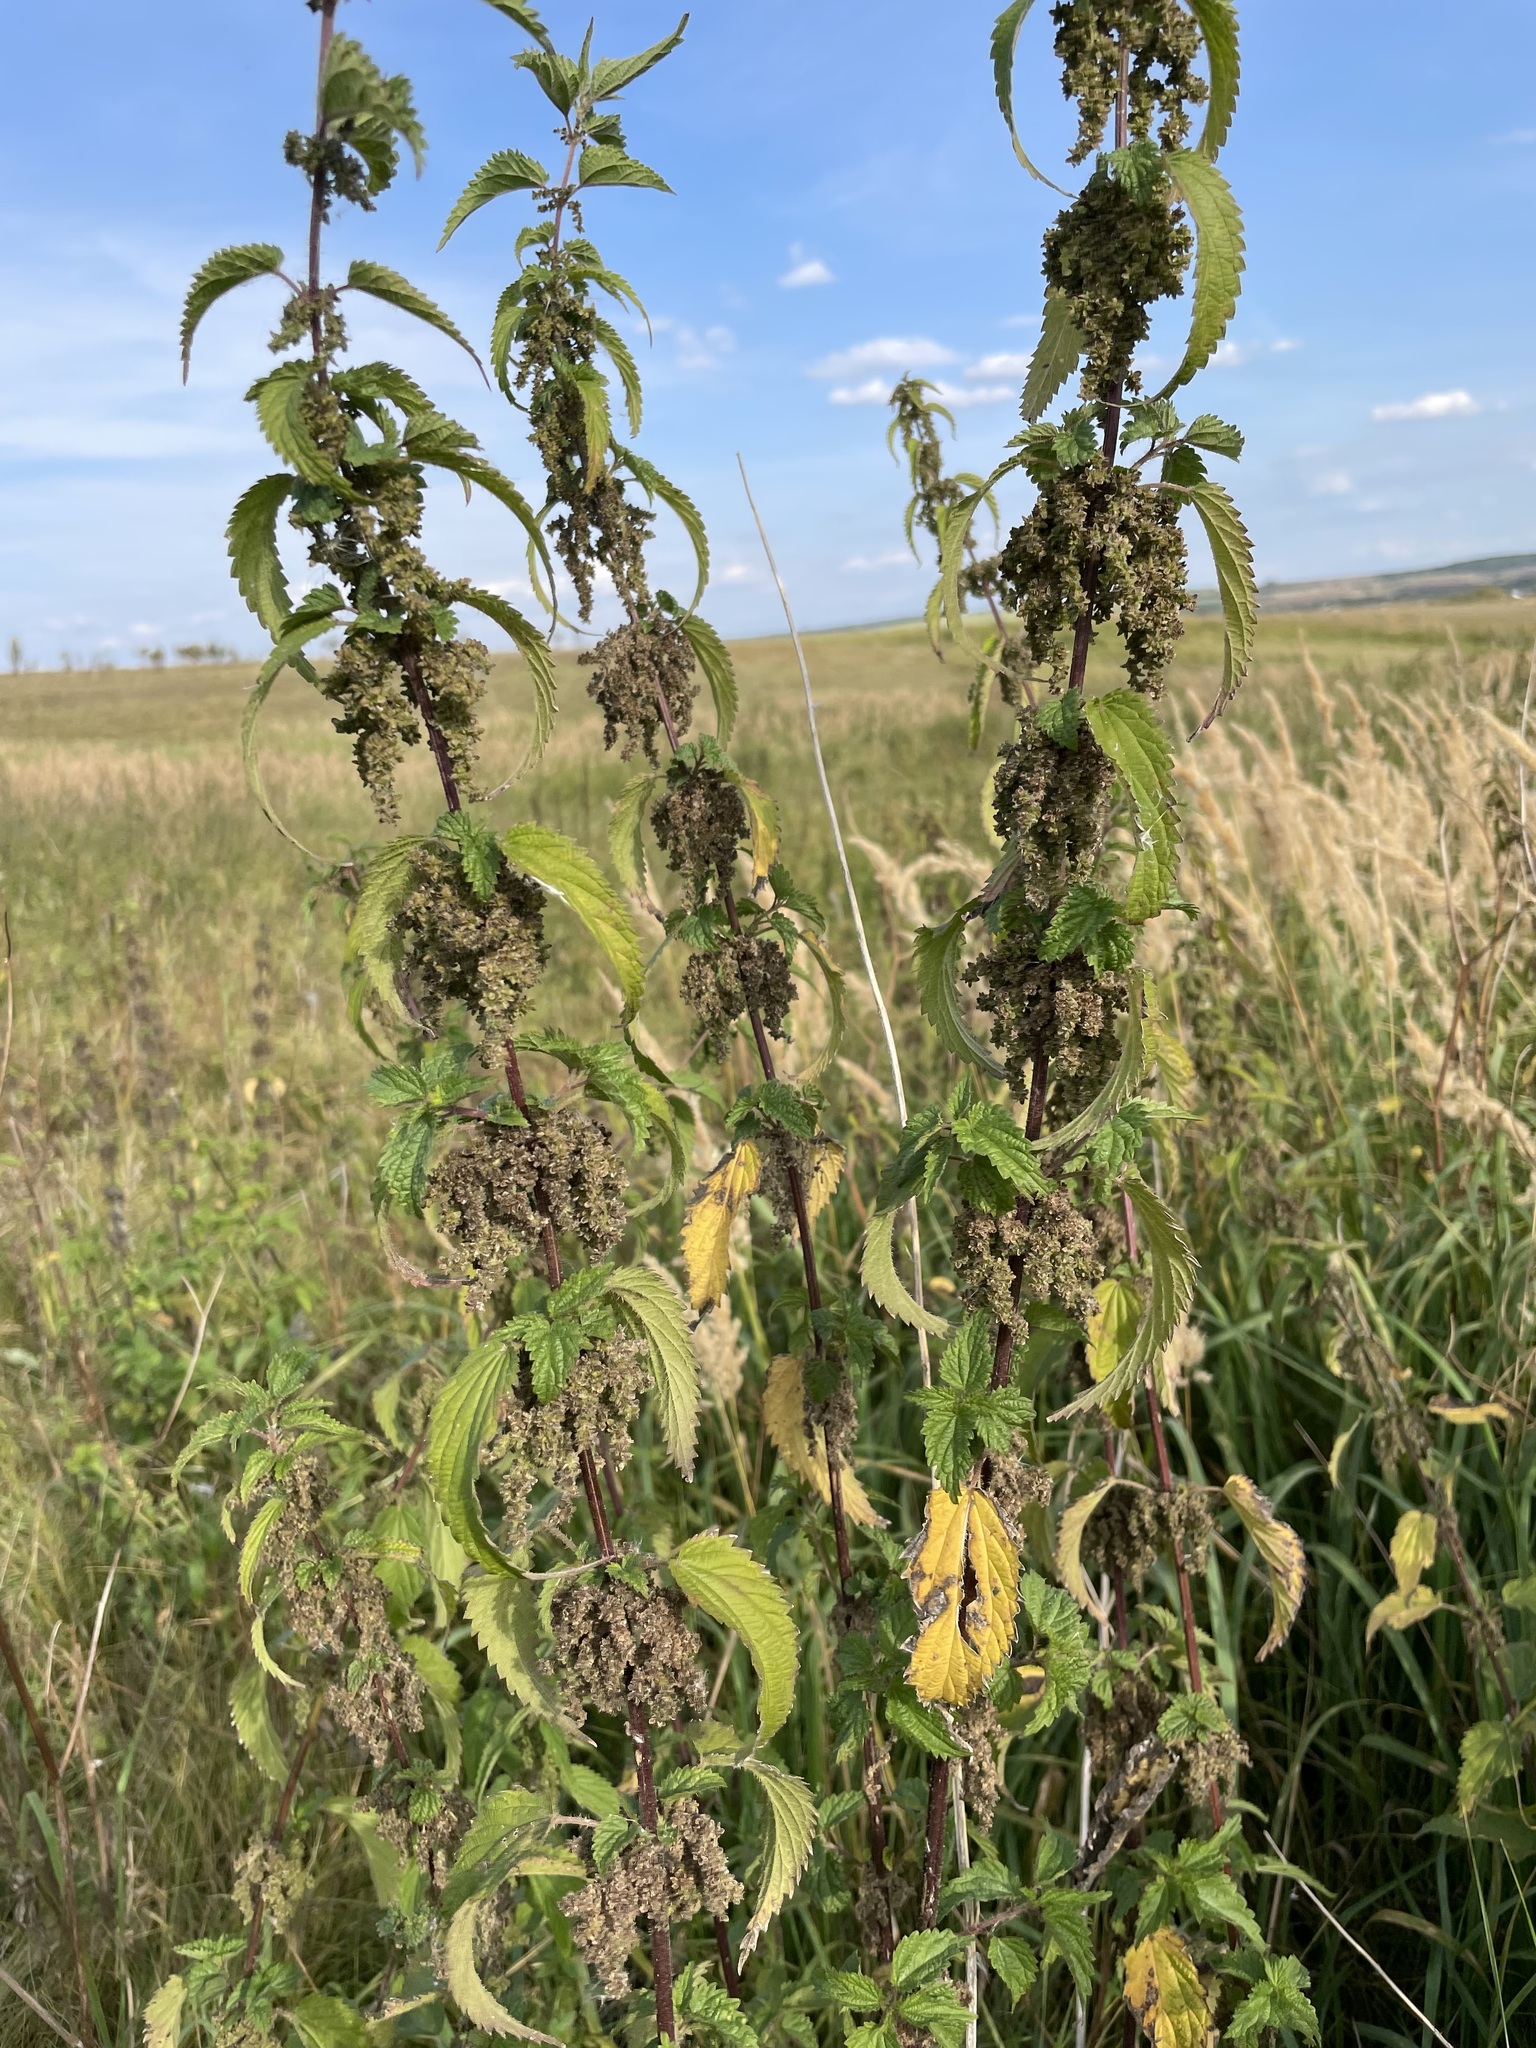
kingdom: Plantae
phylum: Tracheophyta
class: Magnoliopsida
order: Rosales
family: Urticaceae
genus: Urtica
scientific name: Urtica dioica
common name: Common nettle
